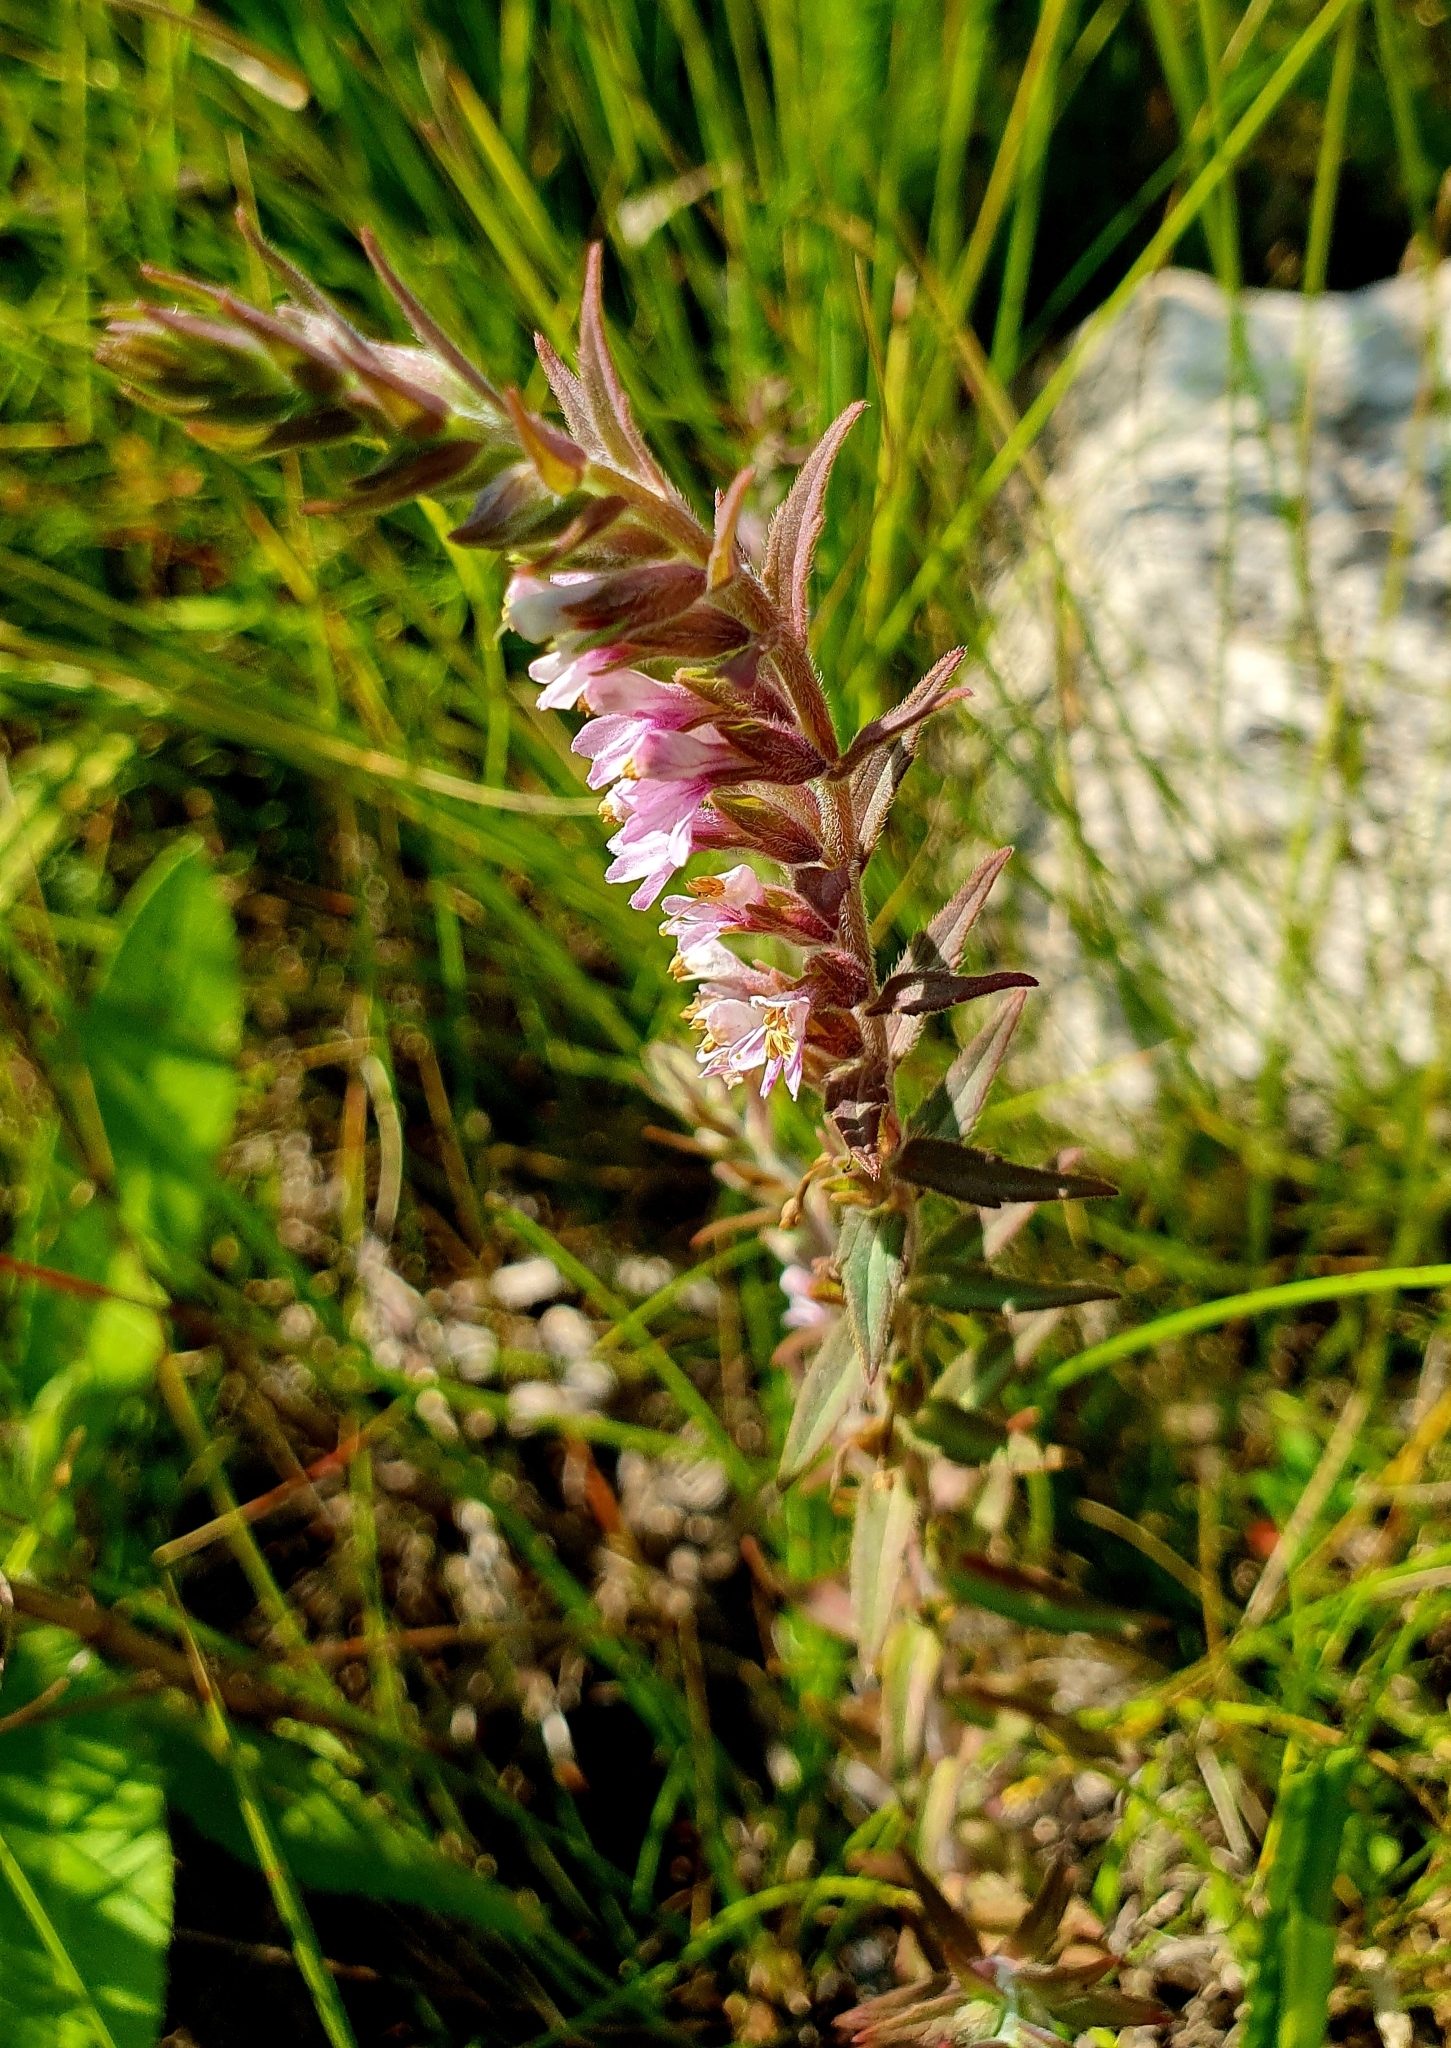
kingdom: Plantae
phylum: Tracheophyta
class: Magnoliopsida
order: Lamiales
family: Orobanchaceae
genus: Odontites
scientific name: Odontites vulgaris
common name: Broomrape
